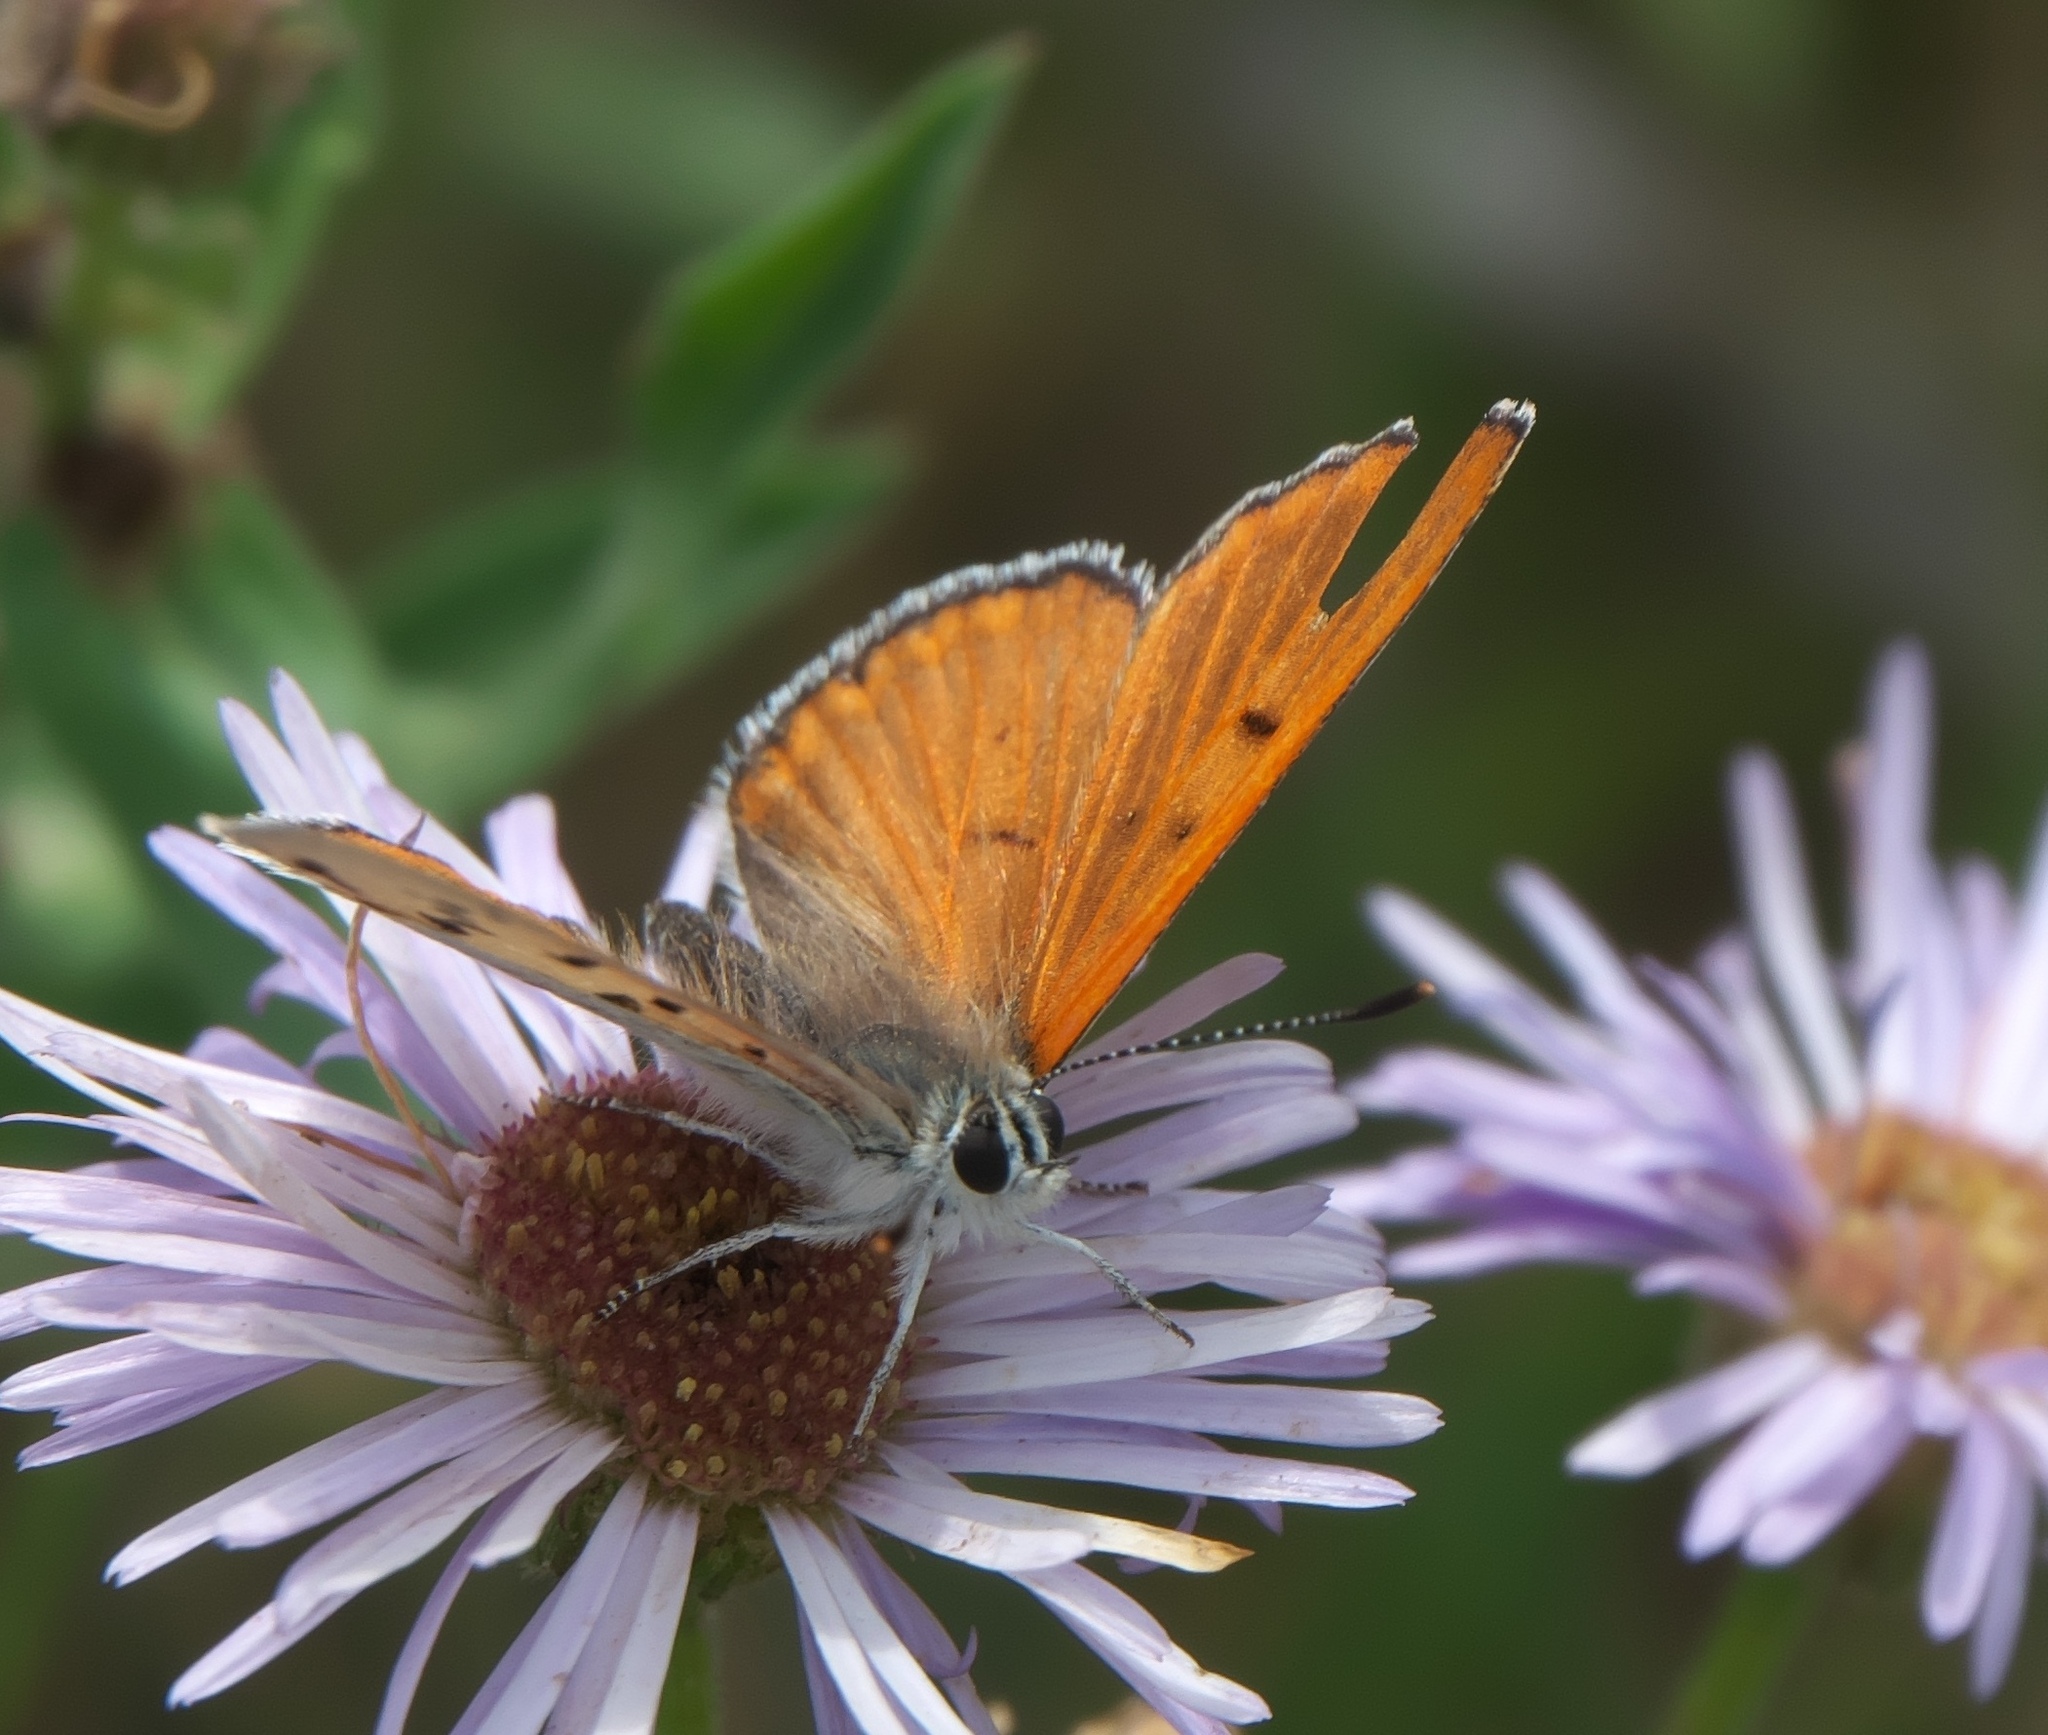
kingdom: Animalia
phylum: Arthropoda
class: Insecta
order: Lepidoptera
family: Lycaenidae
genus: Tharsalea
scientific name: Tharsalea rubidus
